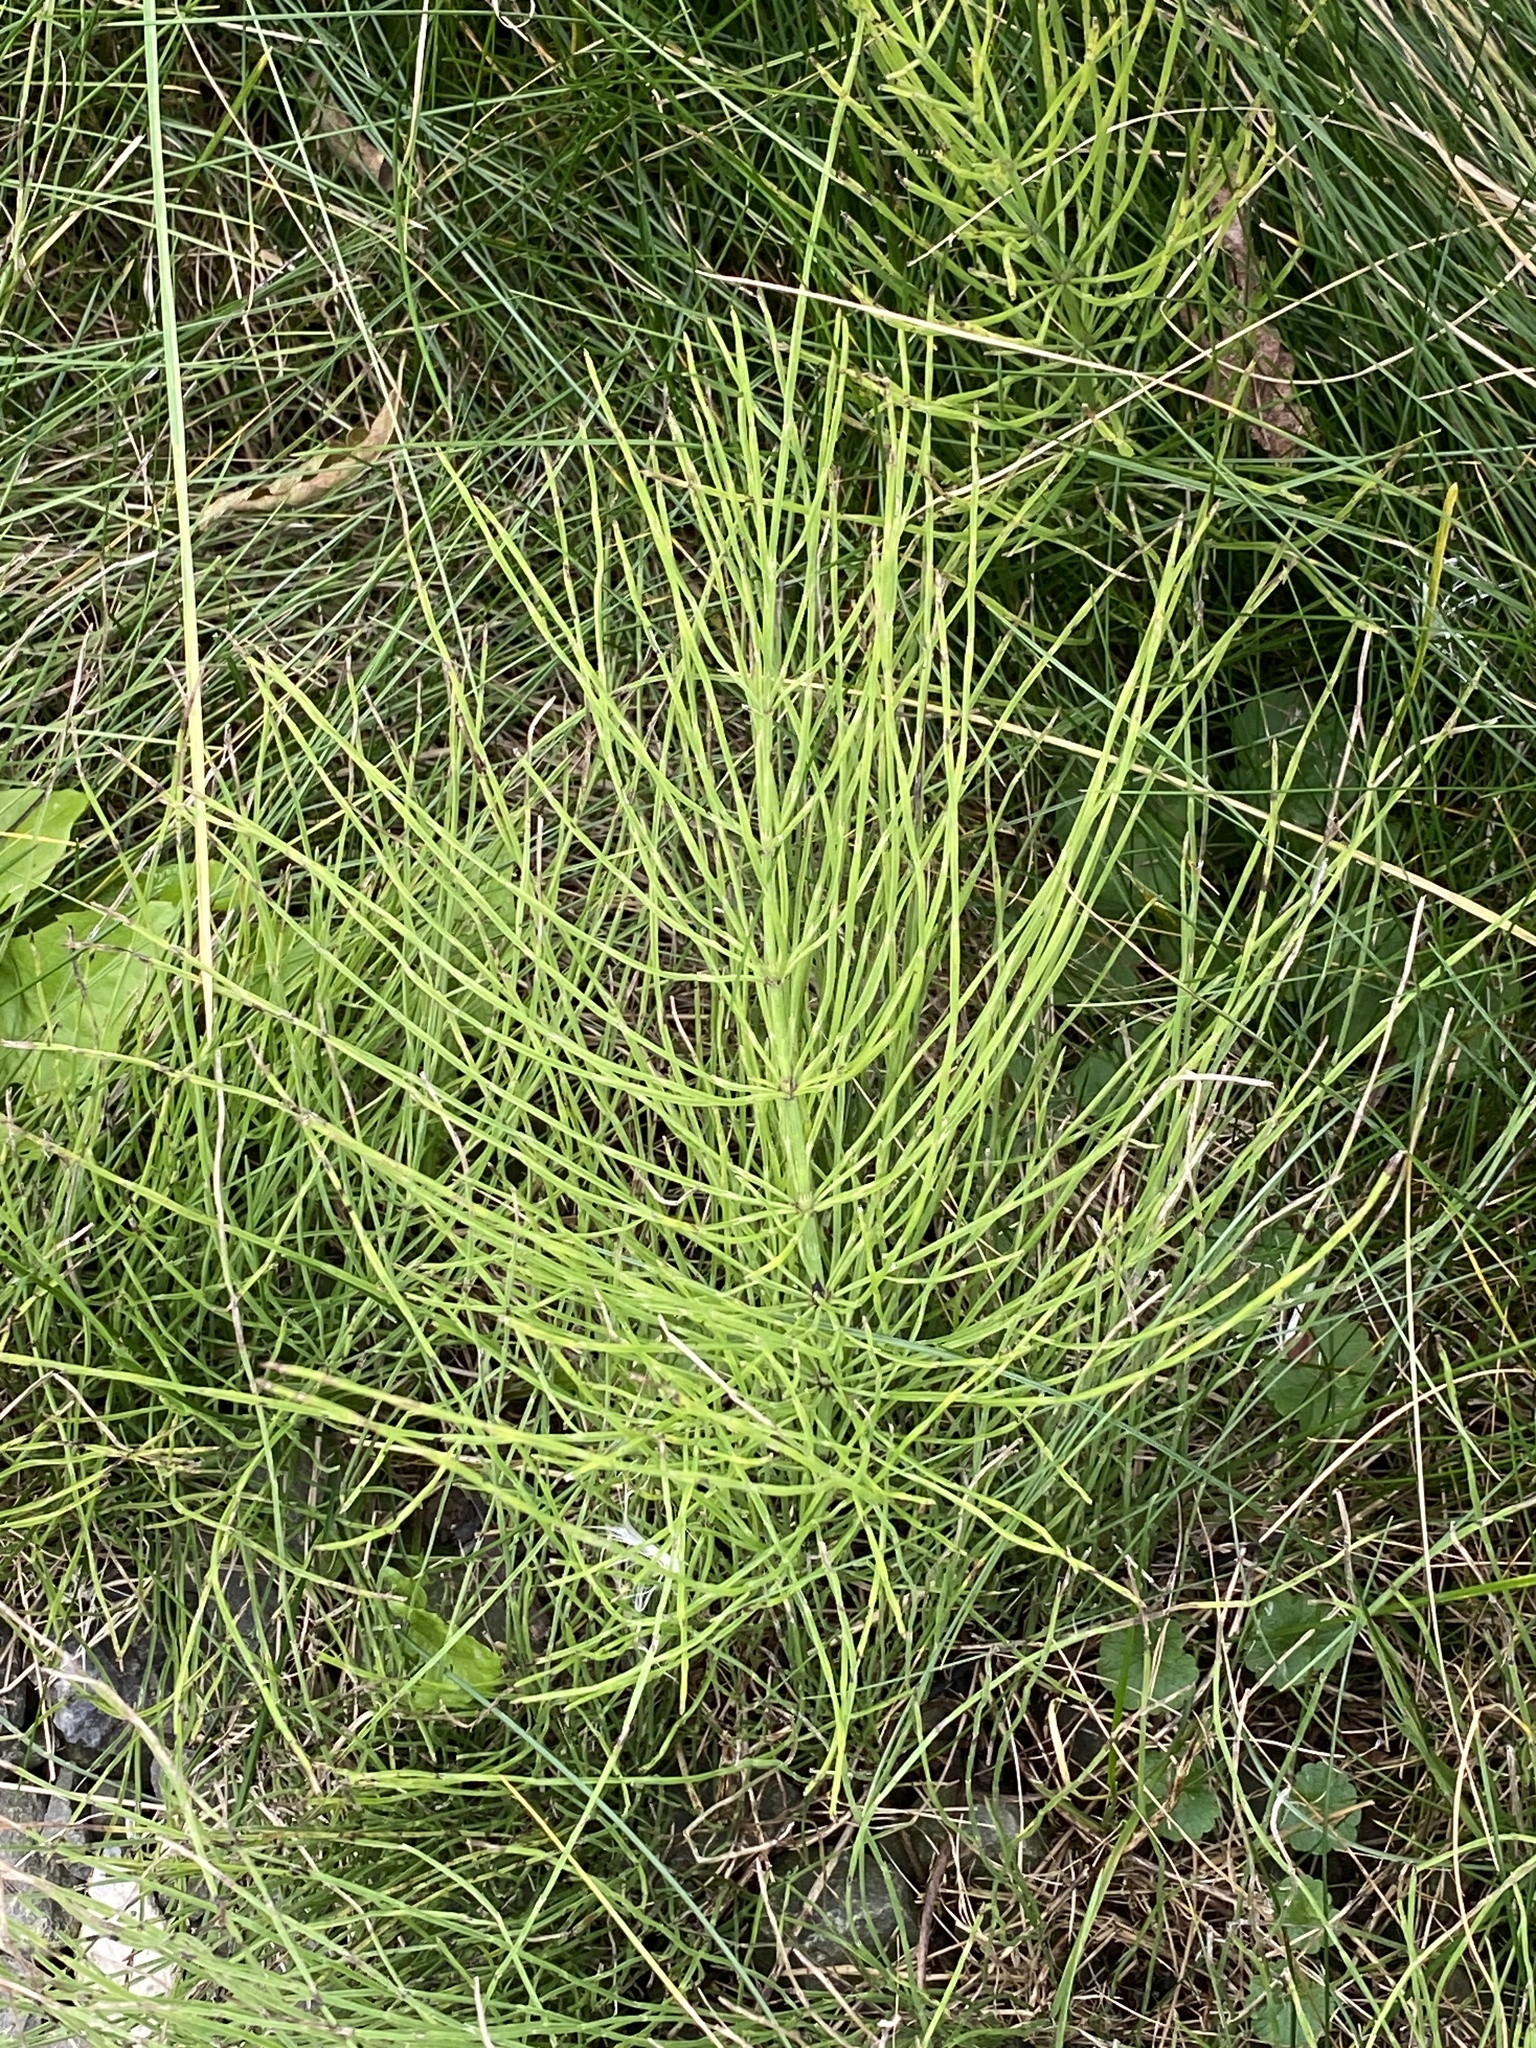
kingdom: Plantae
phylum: Tracheophyta
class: Polypodiopsida
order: Equisetales
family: Equisetaceae
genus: Equisetum
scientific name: Equisetum arvense
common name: Field horsetail
